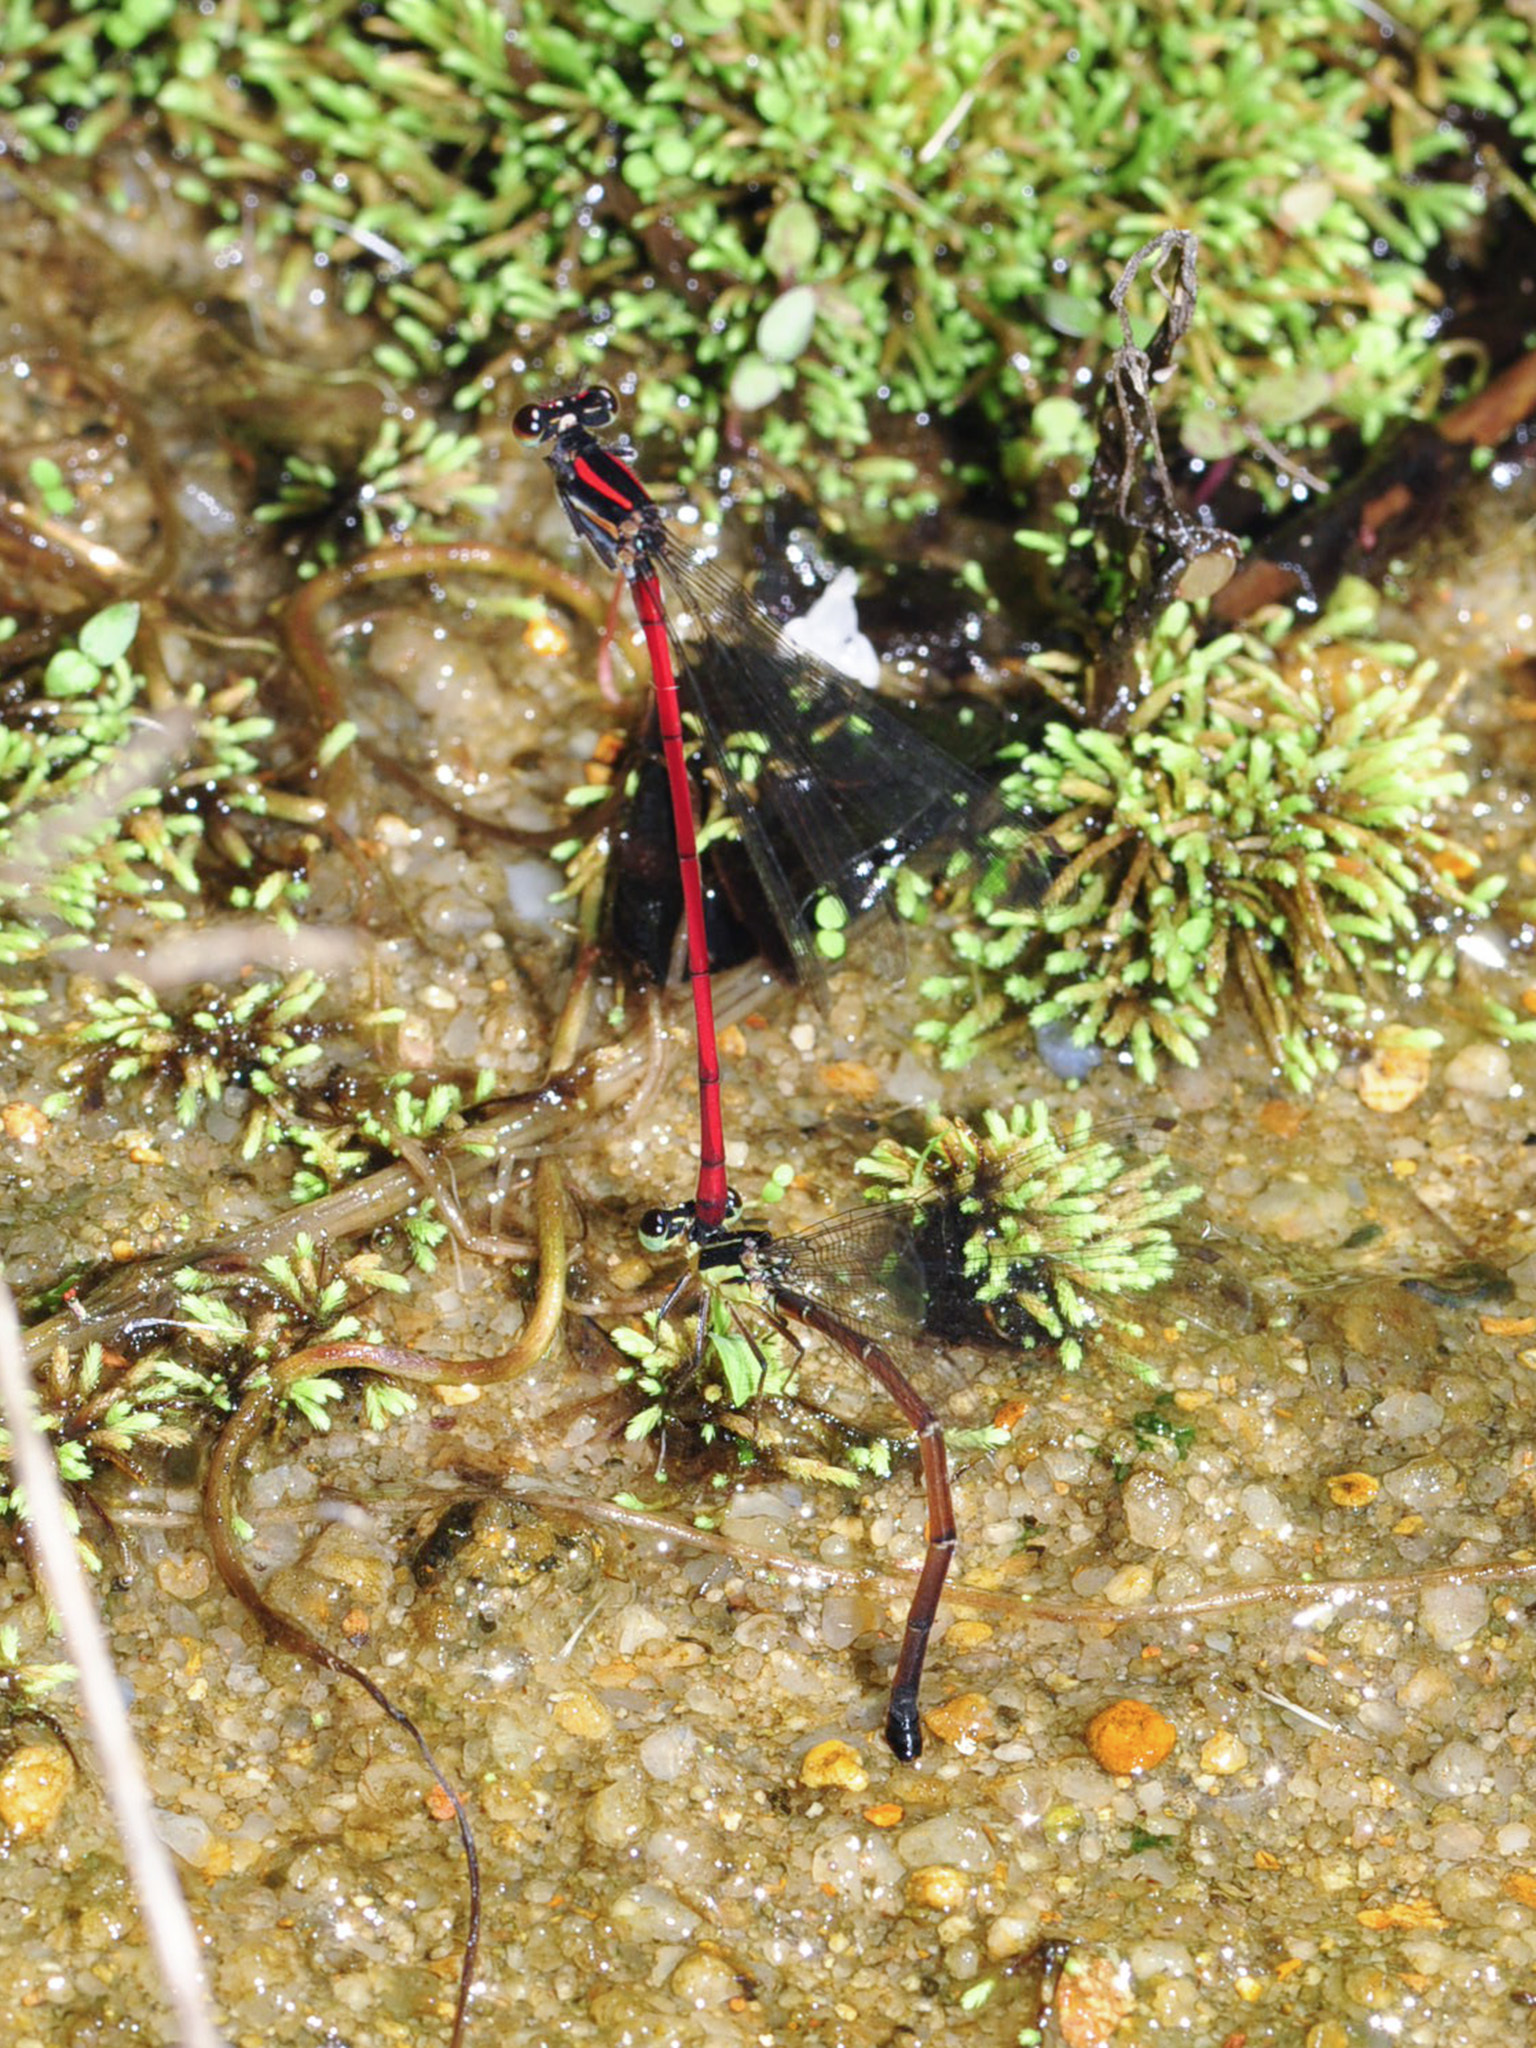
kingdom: Animalia
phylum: Arthropoda
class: Insecta
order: Odonata
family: Platycnemididae
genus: Calicnemia
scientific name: Calicnemia chaseni
